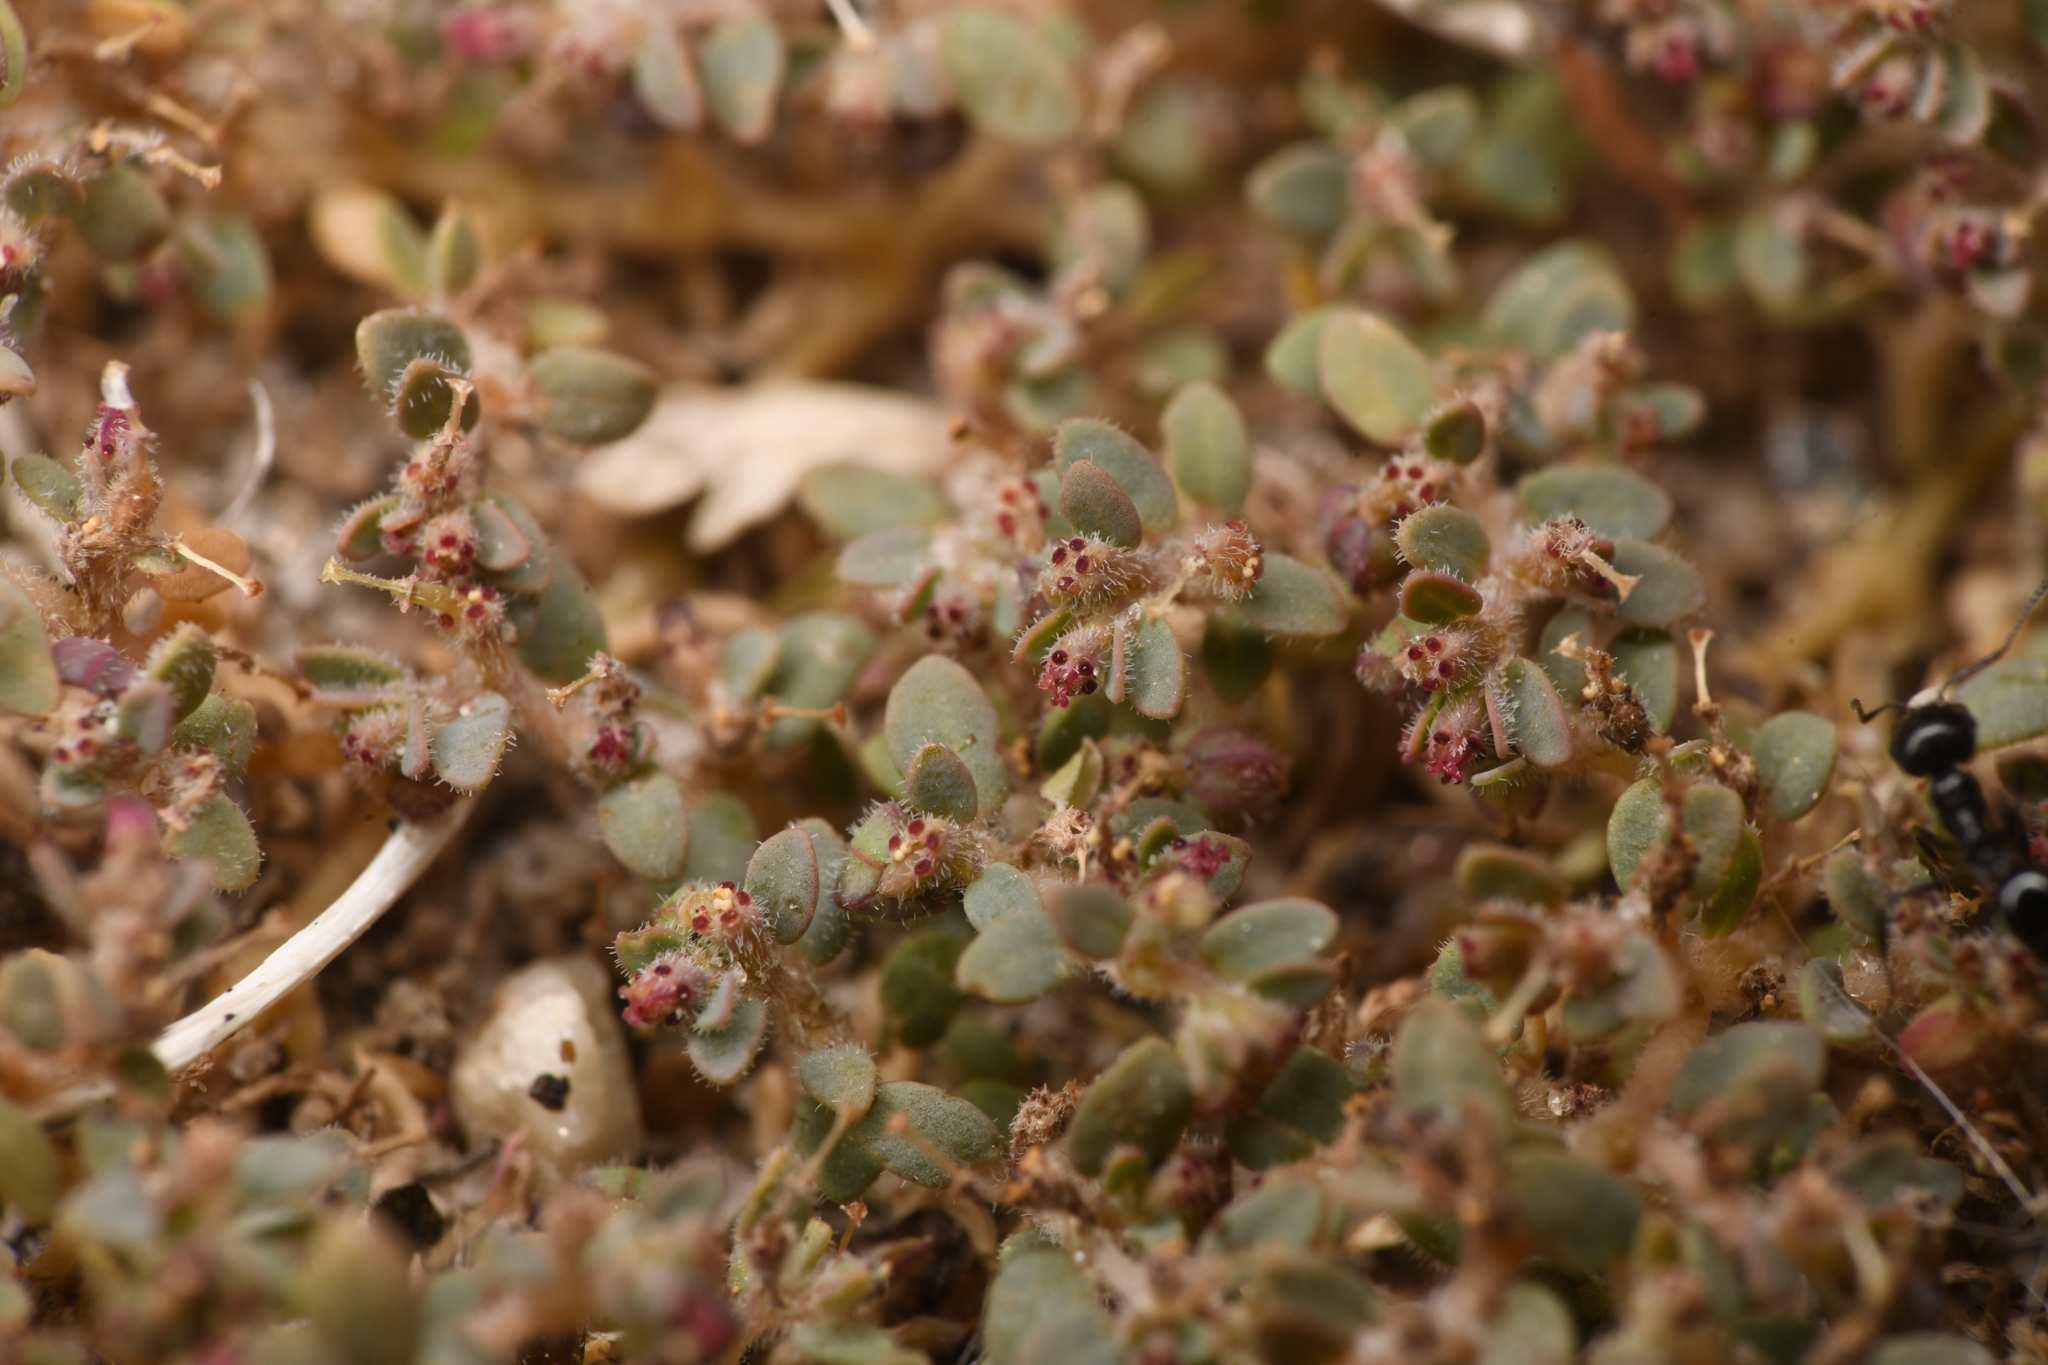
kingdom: Plantae
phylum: Tracheophyta
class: Magnoliopsida
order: Malpighiales
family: Euphorbiaceae
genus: Euphorbia
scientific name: Euphorbia micromera
